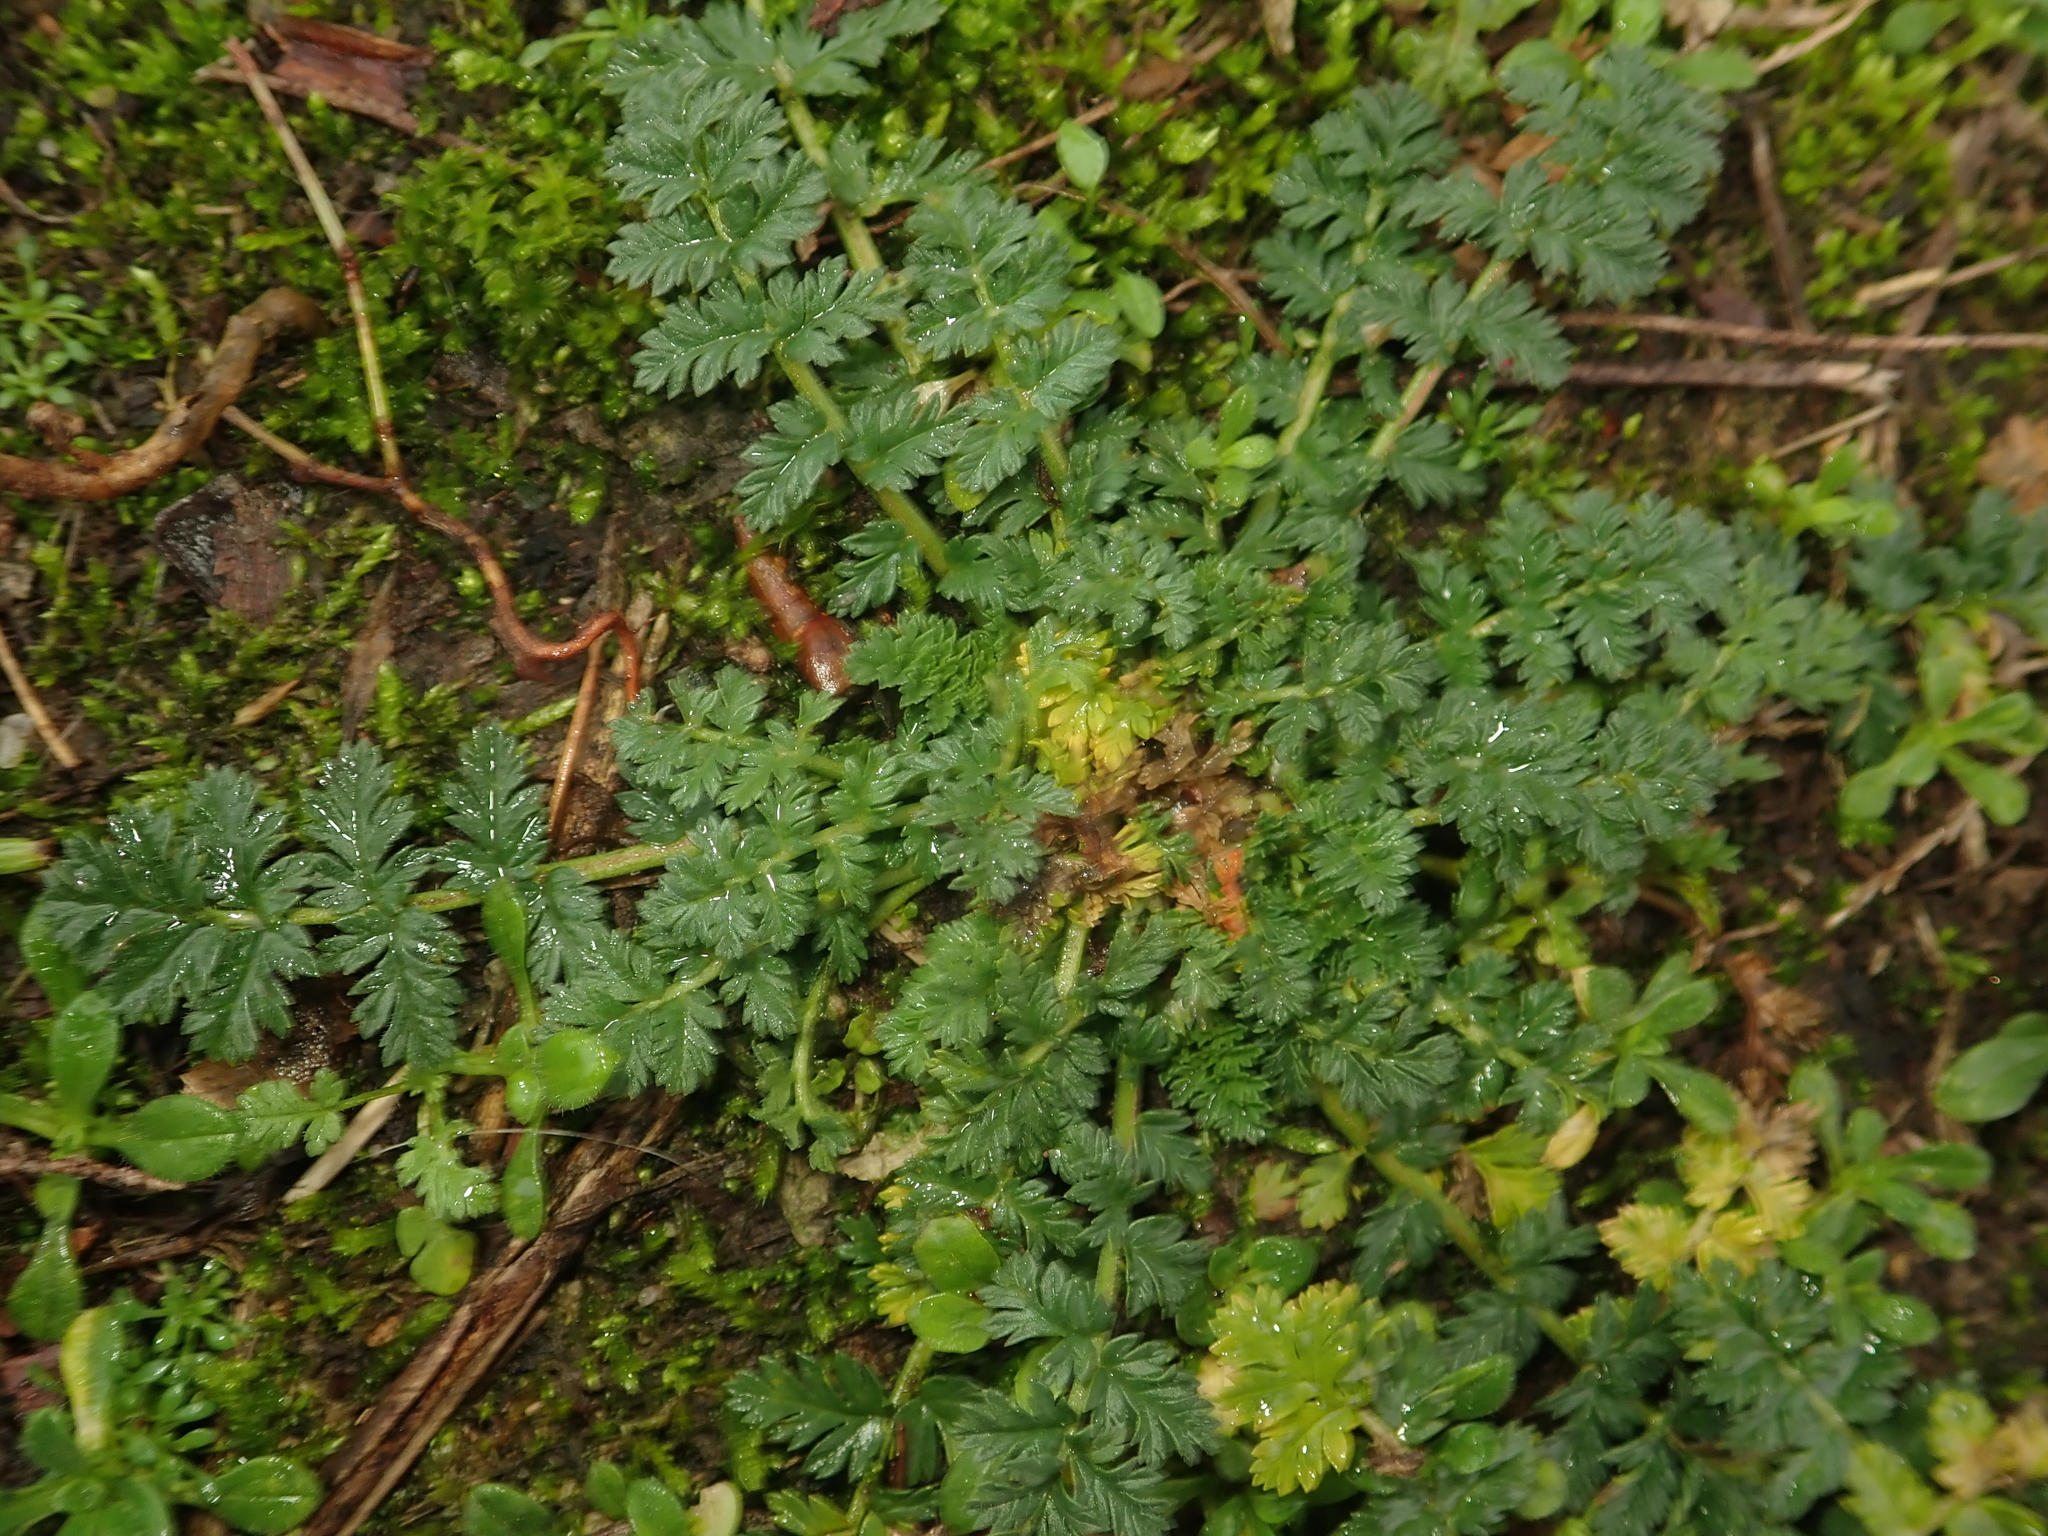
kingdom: Plantae
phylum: Tracheophyta
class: Magnoliopsida
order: Geraniales
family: Geraniaceae
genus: Erodium
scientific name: Erodium cicutarium
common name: Common stork's-bill
